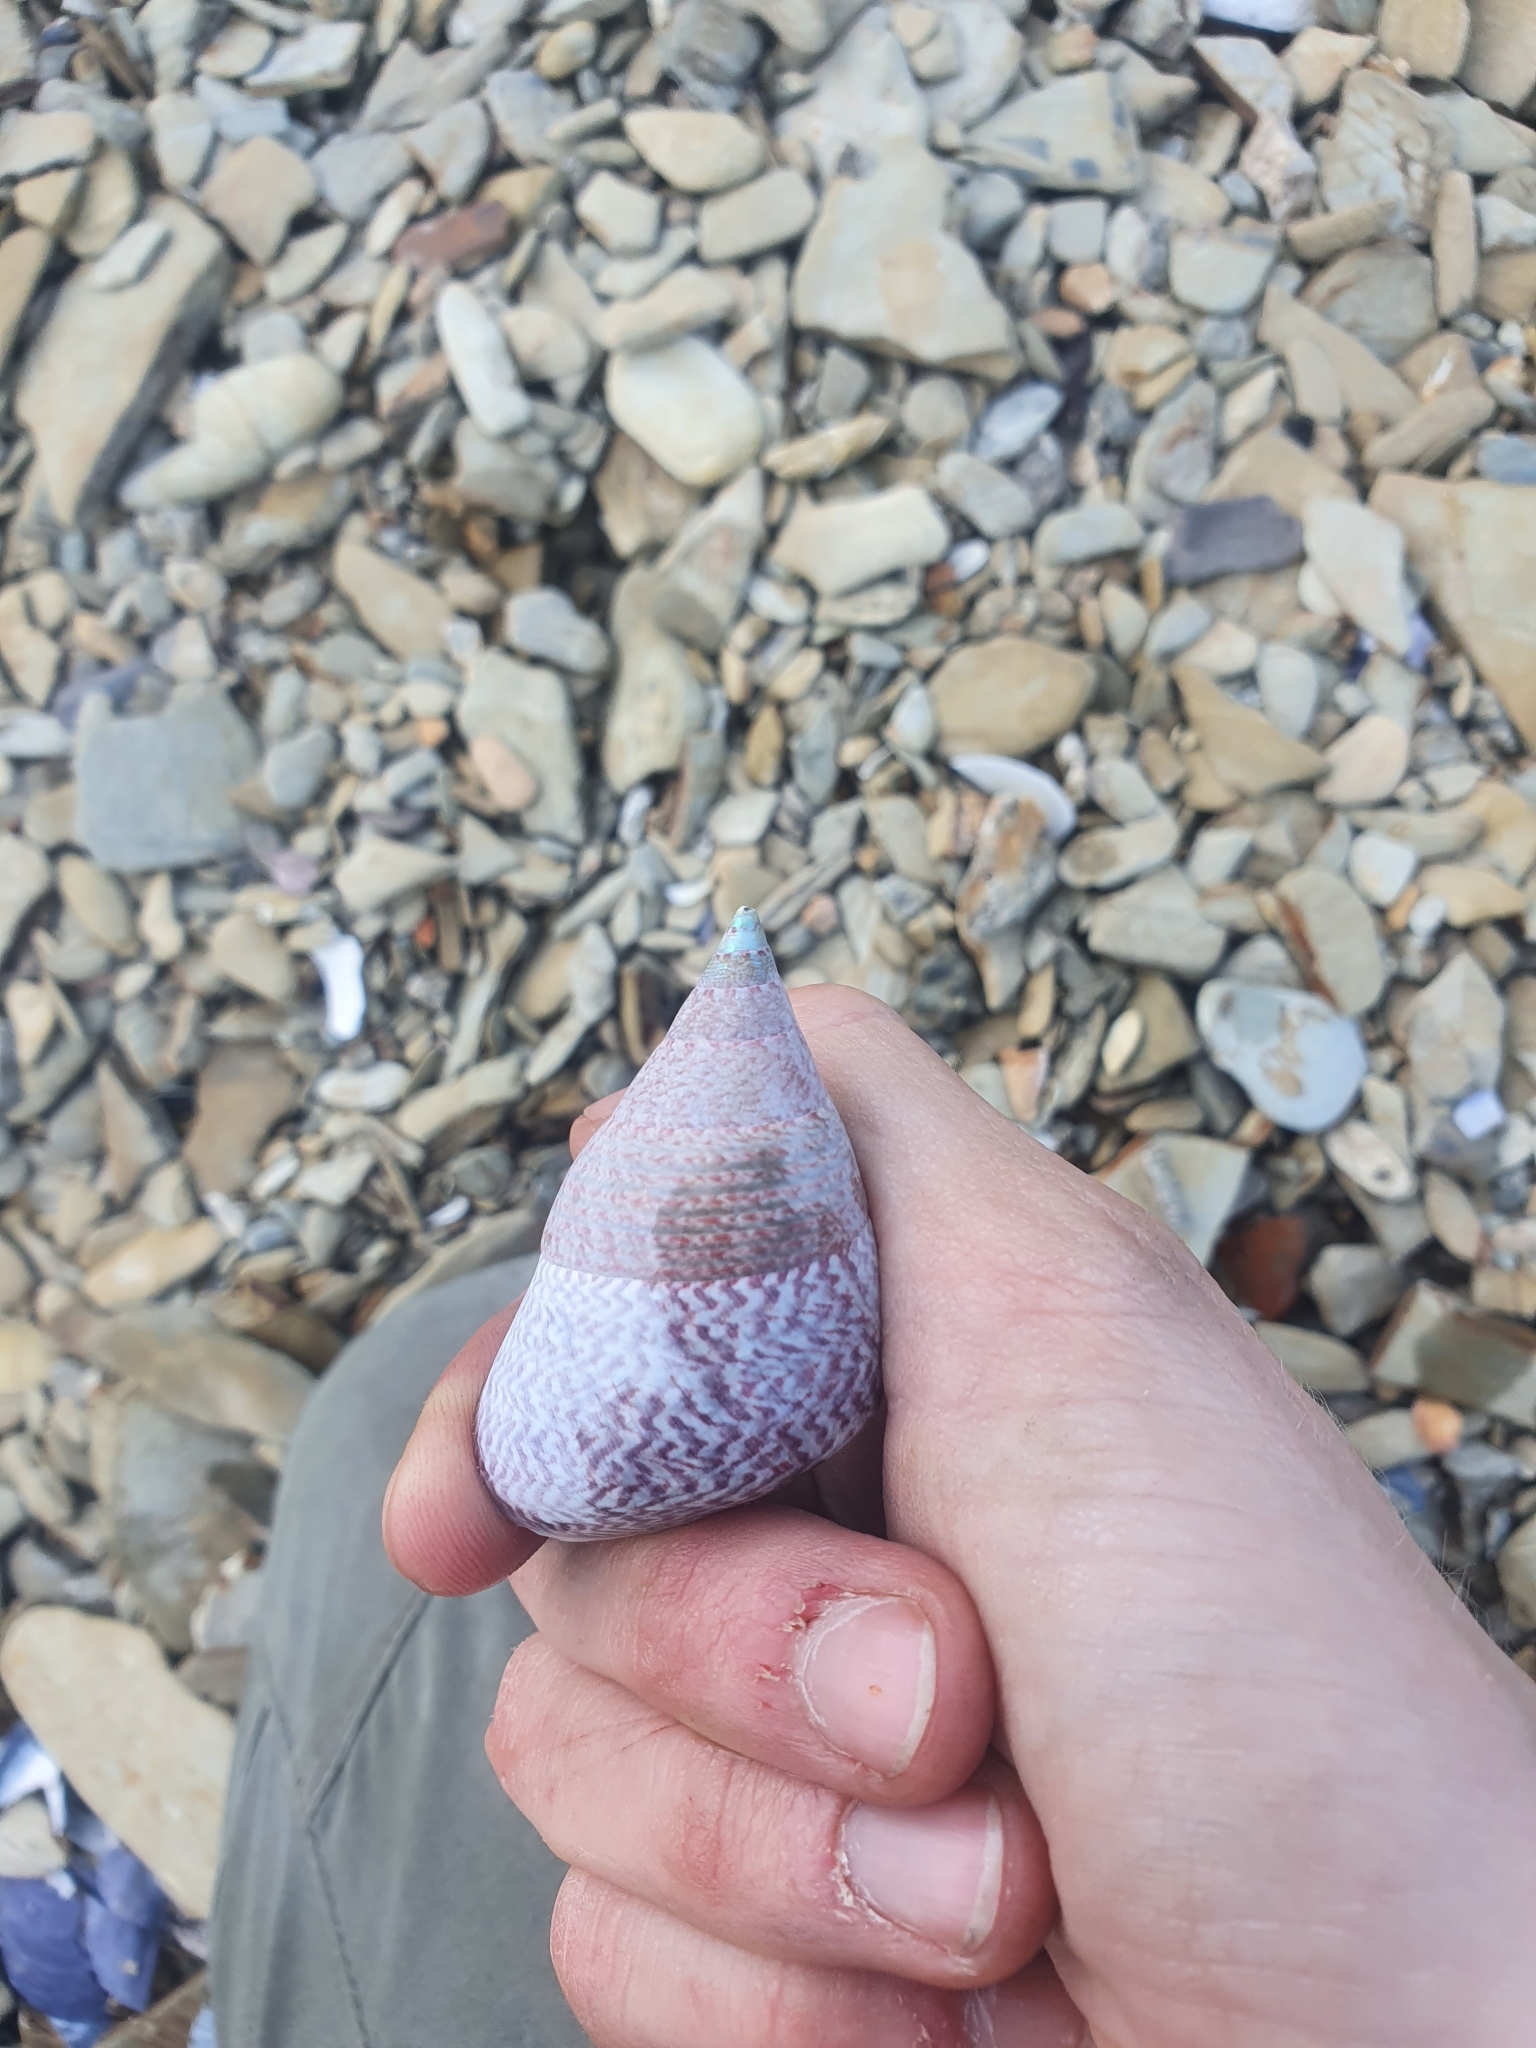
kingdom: Animalia
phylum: Mollusca
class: Gastropoda
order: Trochida
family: Trochidae
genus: Cantharidus
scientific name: Cantharidus opalus
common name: Opal jewel topsnail
